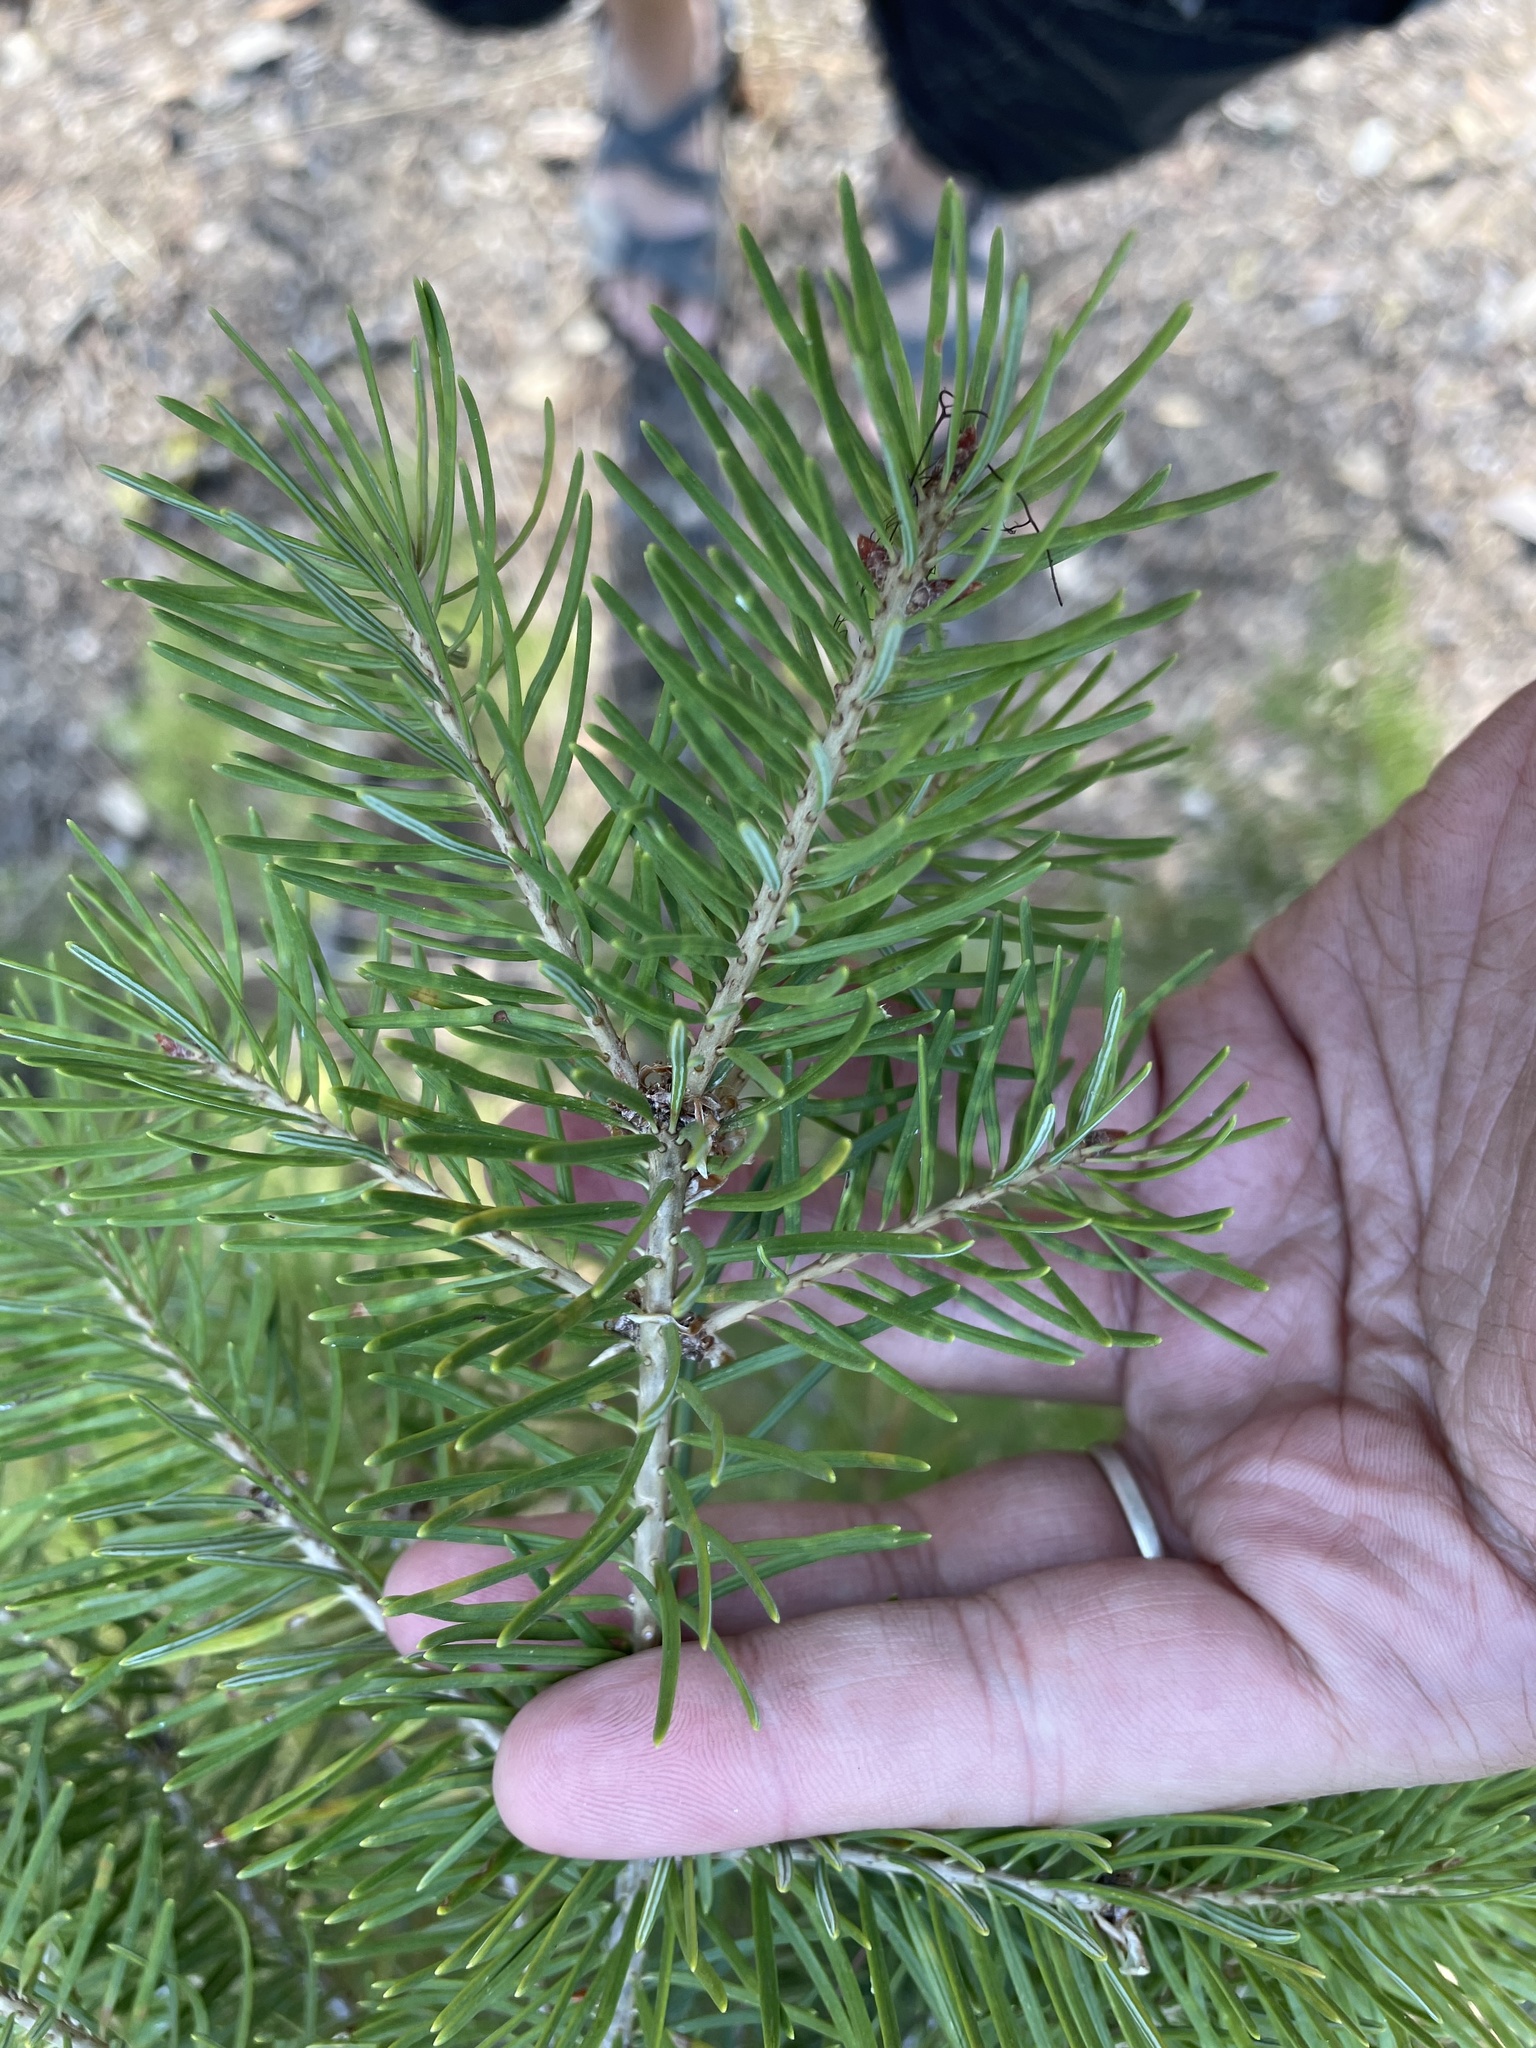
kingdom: Plantae
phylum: Tracheophyta
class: Pinopsida
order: Pinales
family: Pinaceae
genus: Pseudotsuga
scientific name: Pseudotsuga menziesii
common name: Douglas fir
